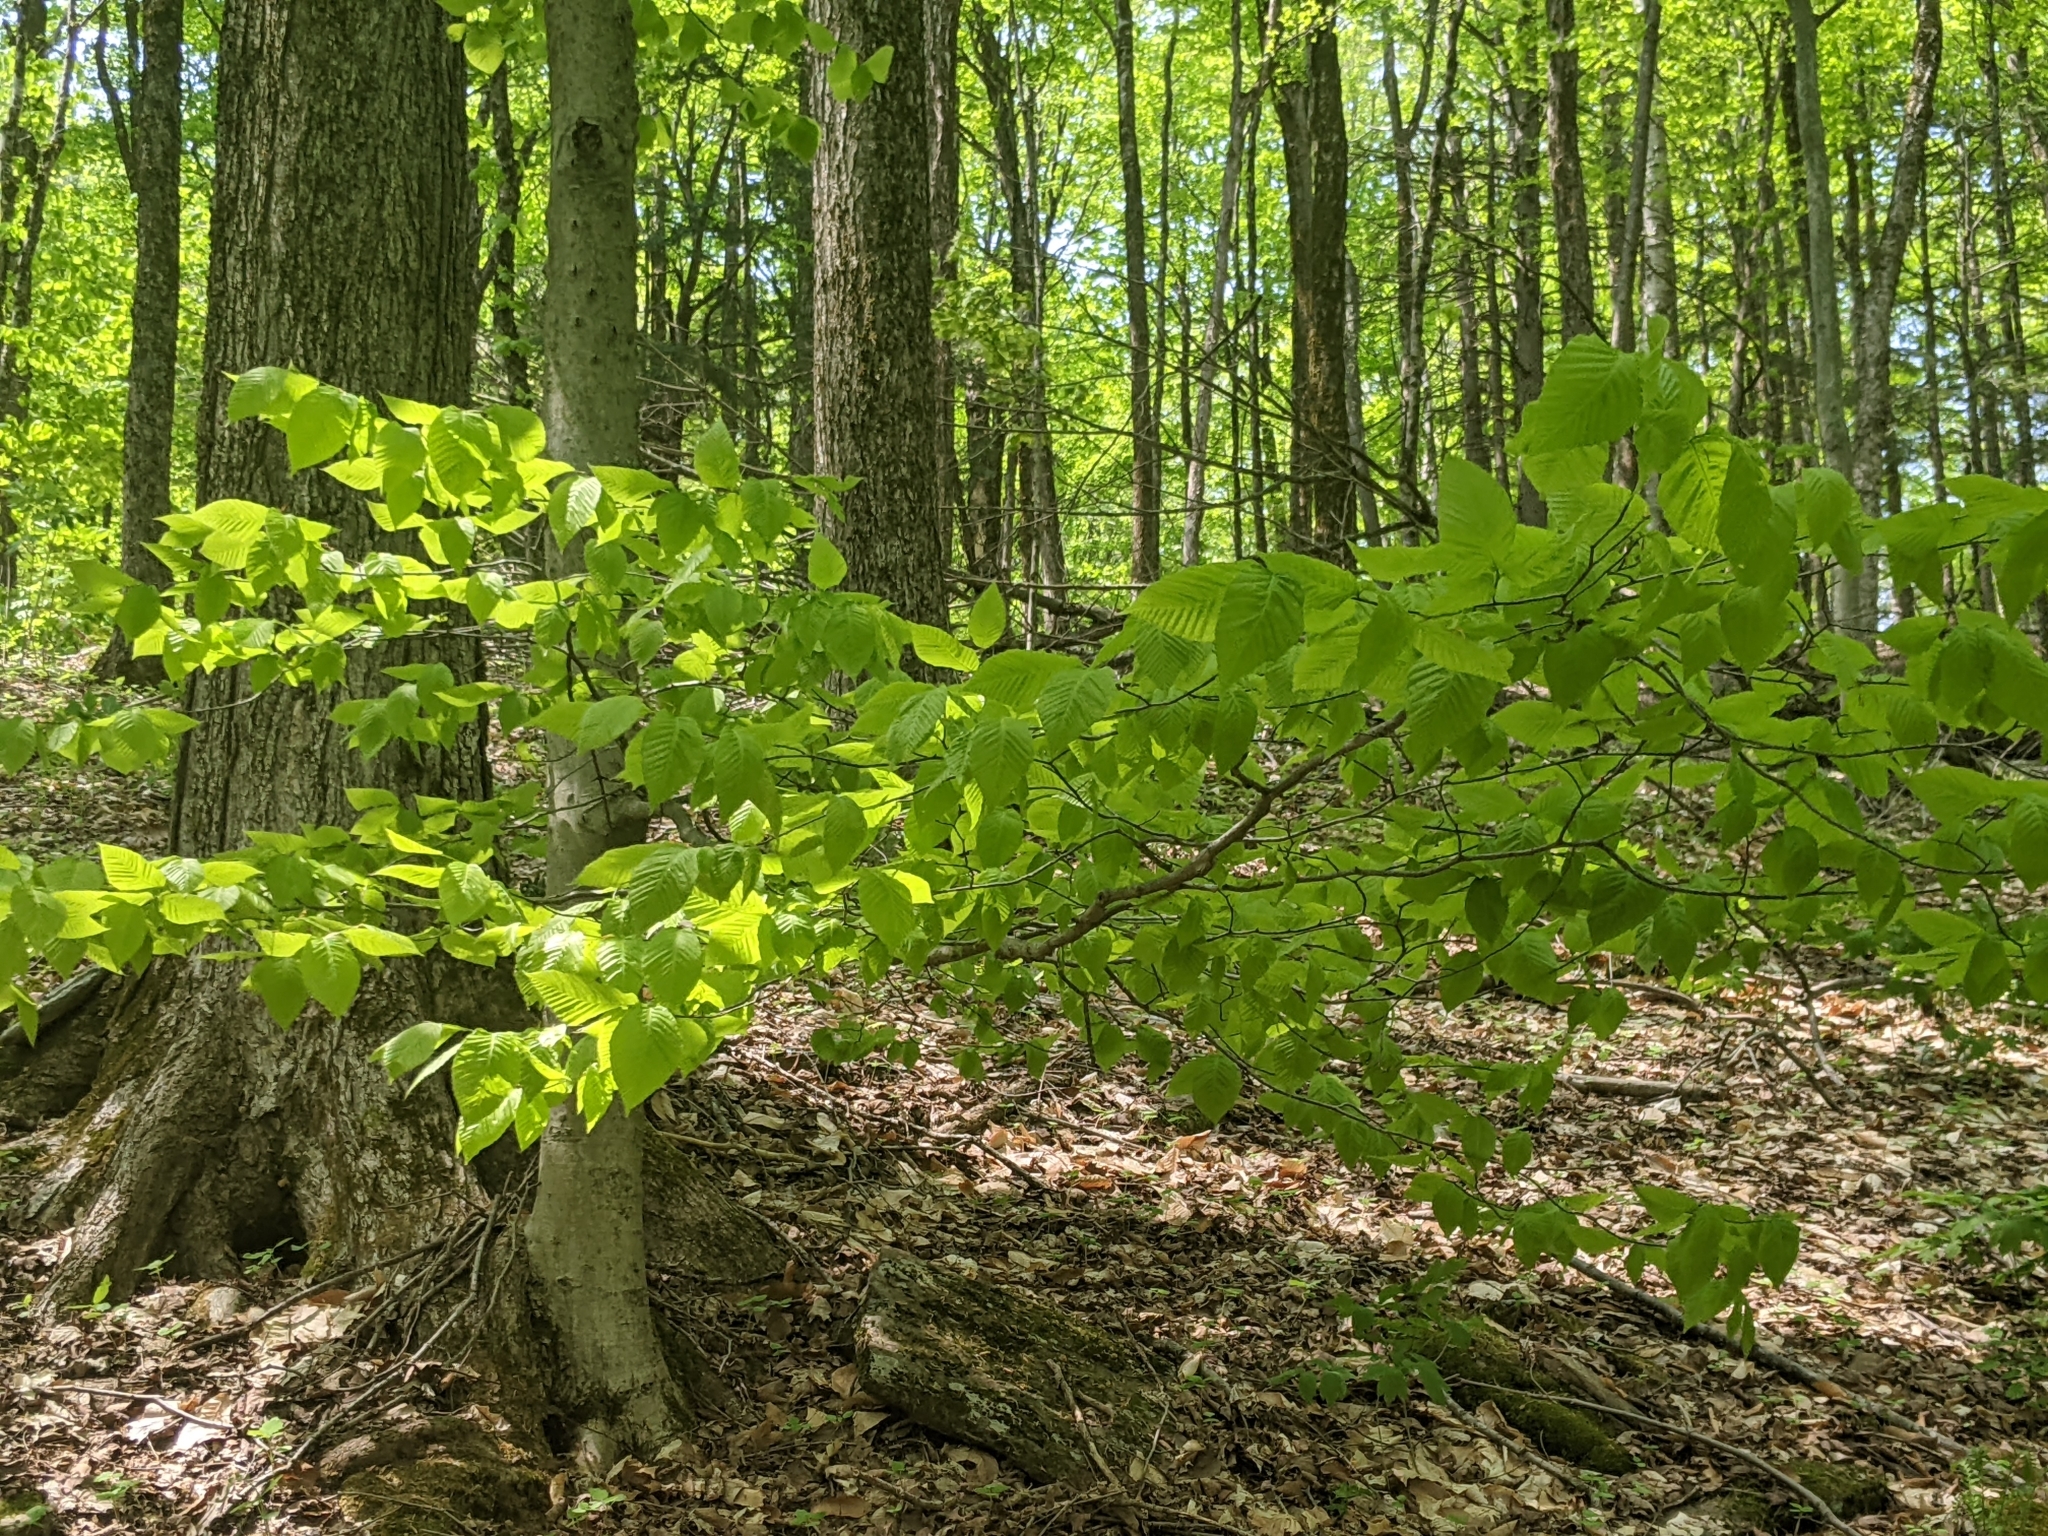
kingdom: Plantae
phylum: Tracheophyta
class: Magnoliopsida
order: Fagales
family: Fagaceae
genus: Fagus
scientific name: Fagus grandifolia
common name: American beech
